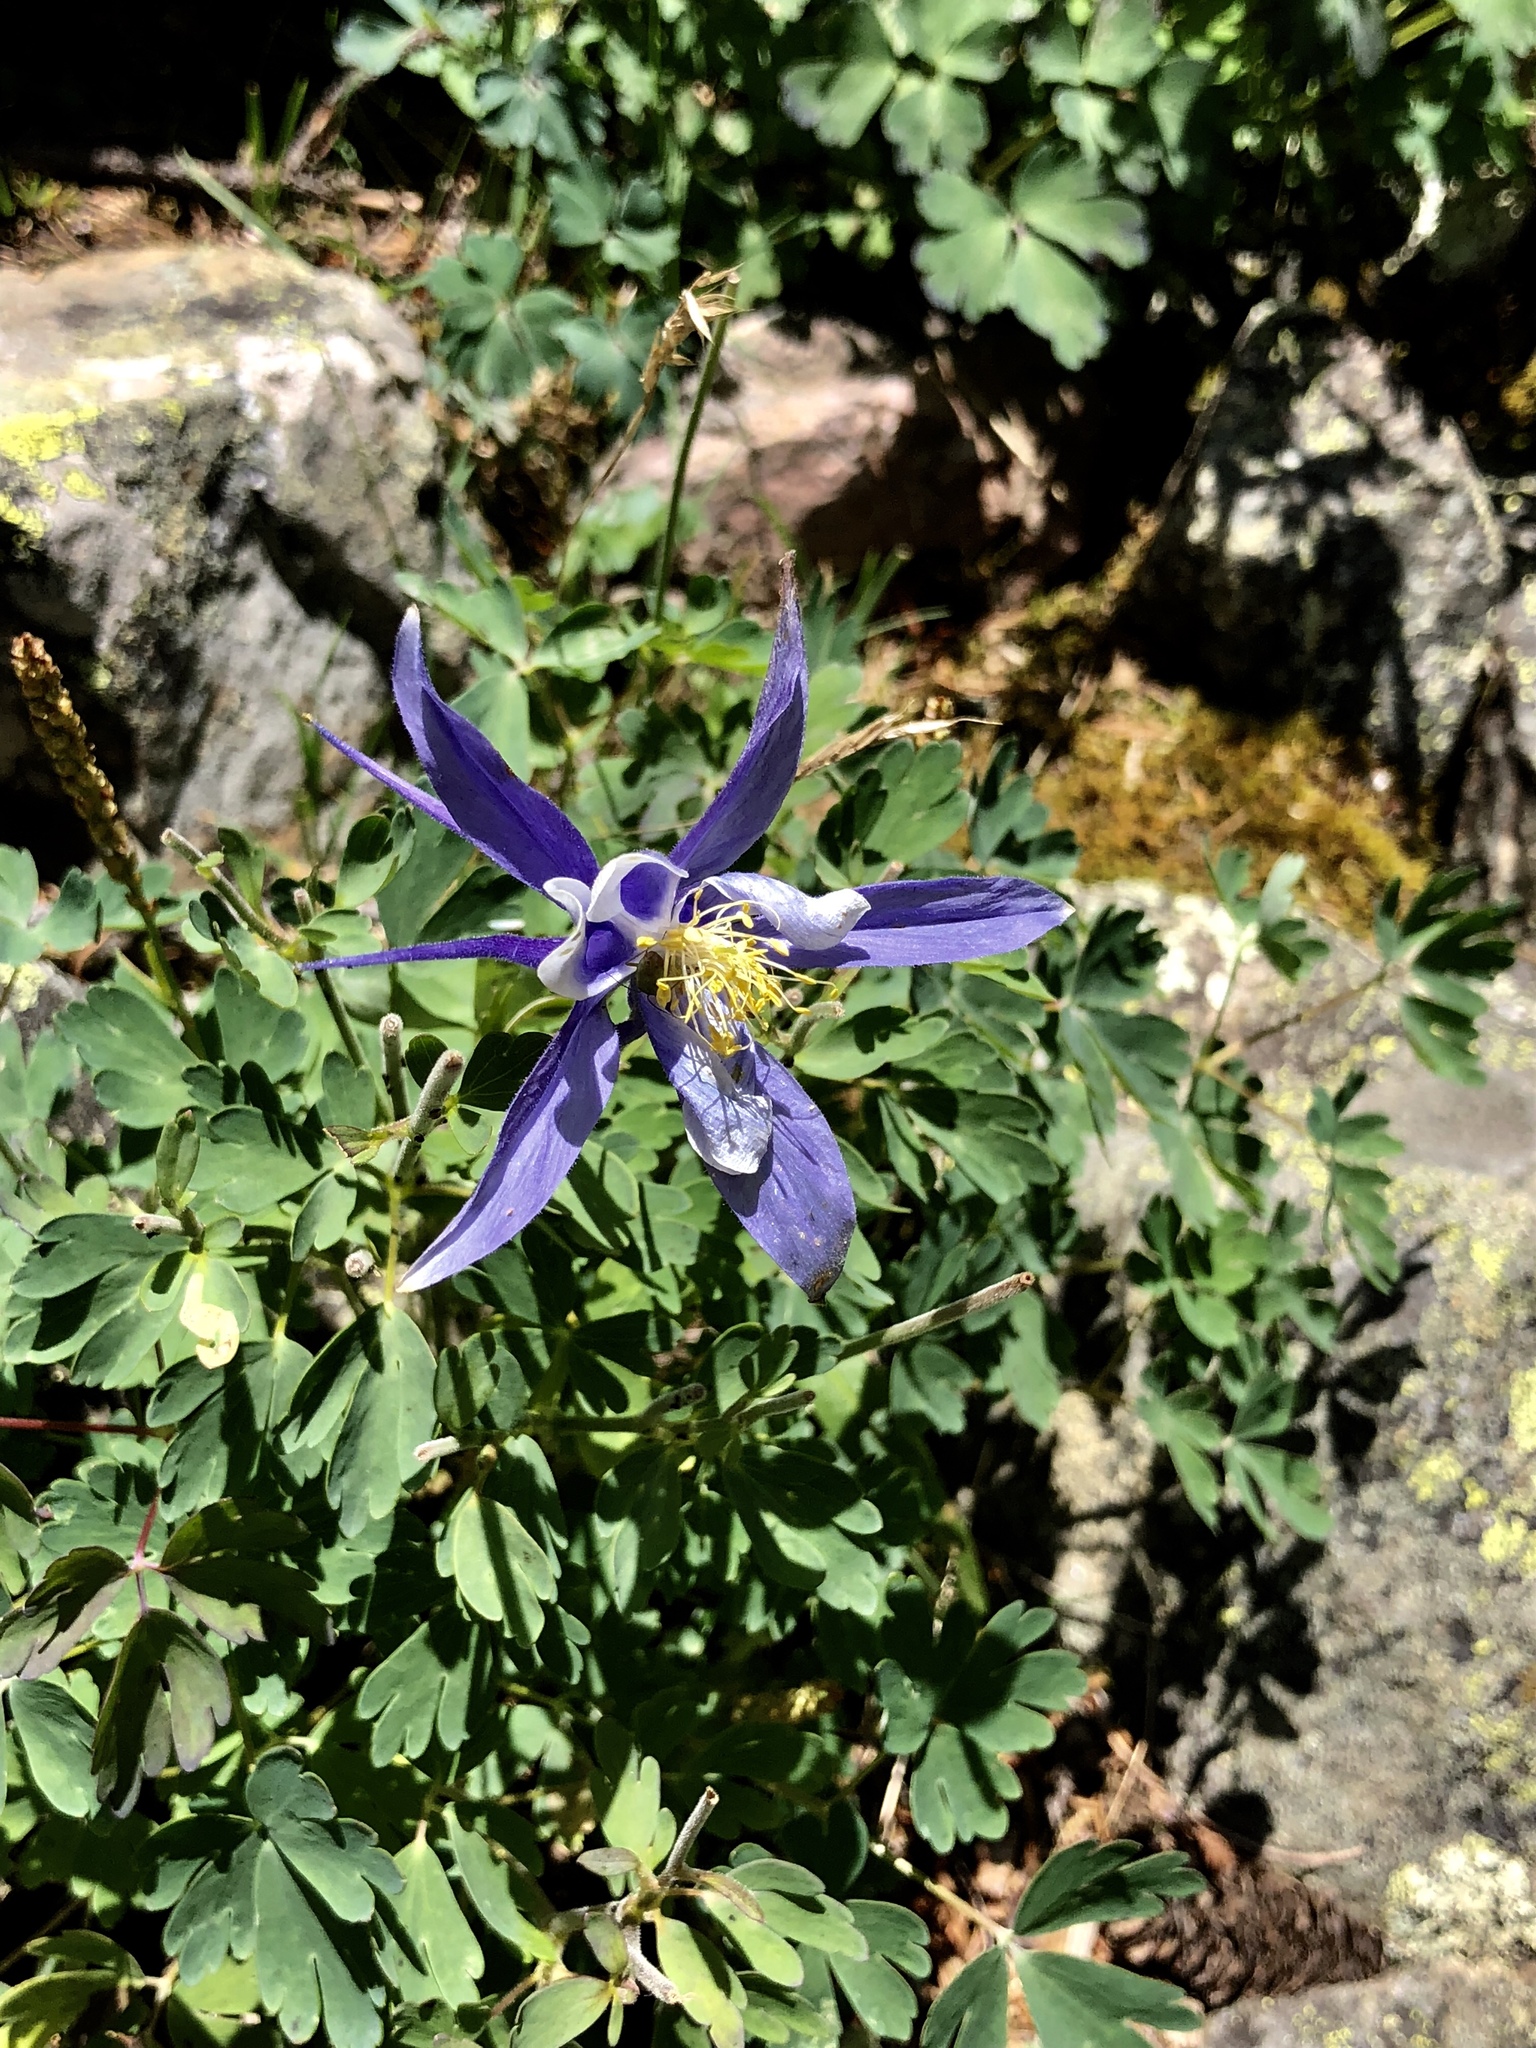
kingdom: Plantae
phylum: Tracheophyta
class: Magnoliopsida
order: Ranunculales
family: Ranunculaceae
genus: Aquilegia
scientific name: Aquilegia coerulea
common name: Rocky mountain columbine
